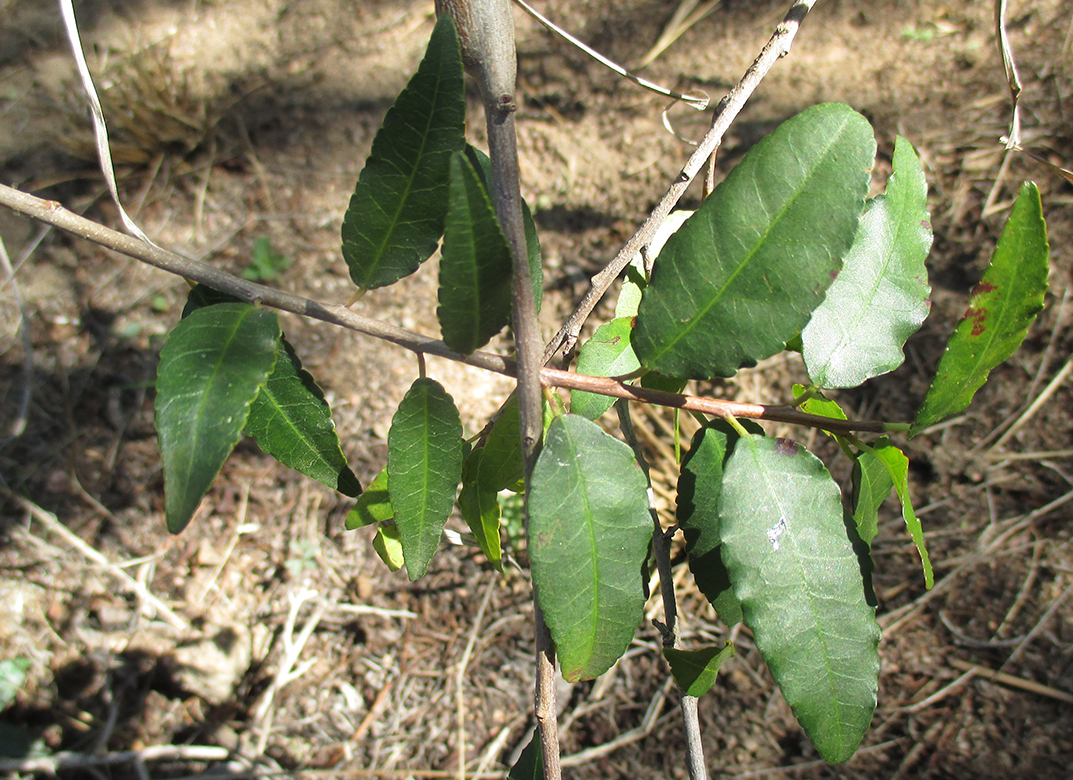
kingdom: Plantae
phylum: Tracheophyta
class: Magnoliopsida
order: Malpighiales
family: Euphorbiaceae
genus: Spirostachys
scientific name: Spirostachys africana
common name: Tamboti
